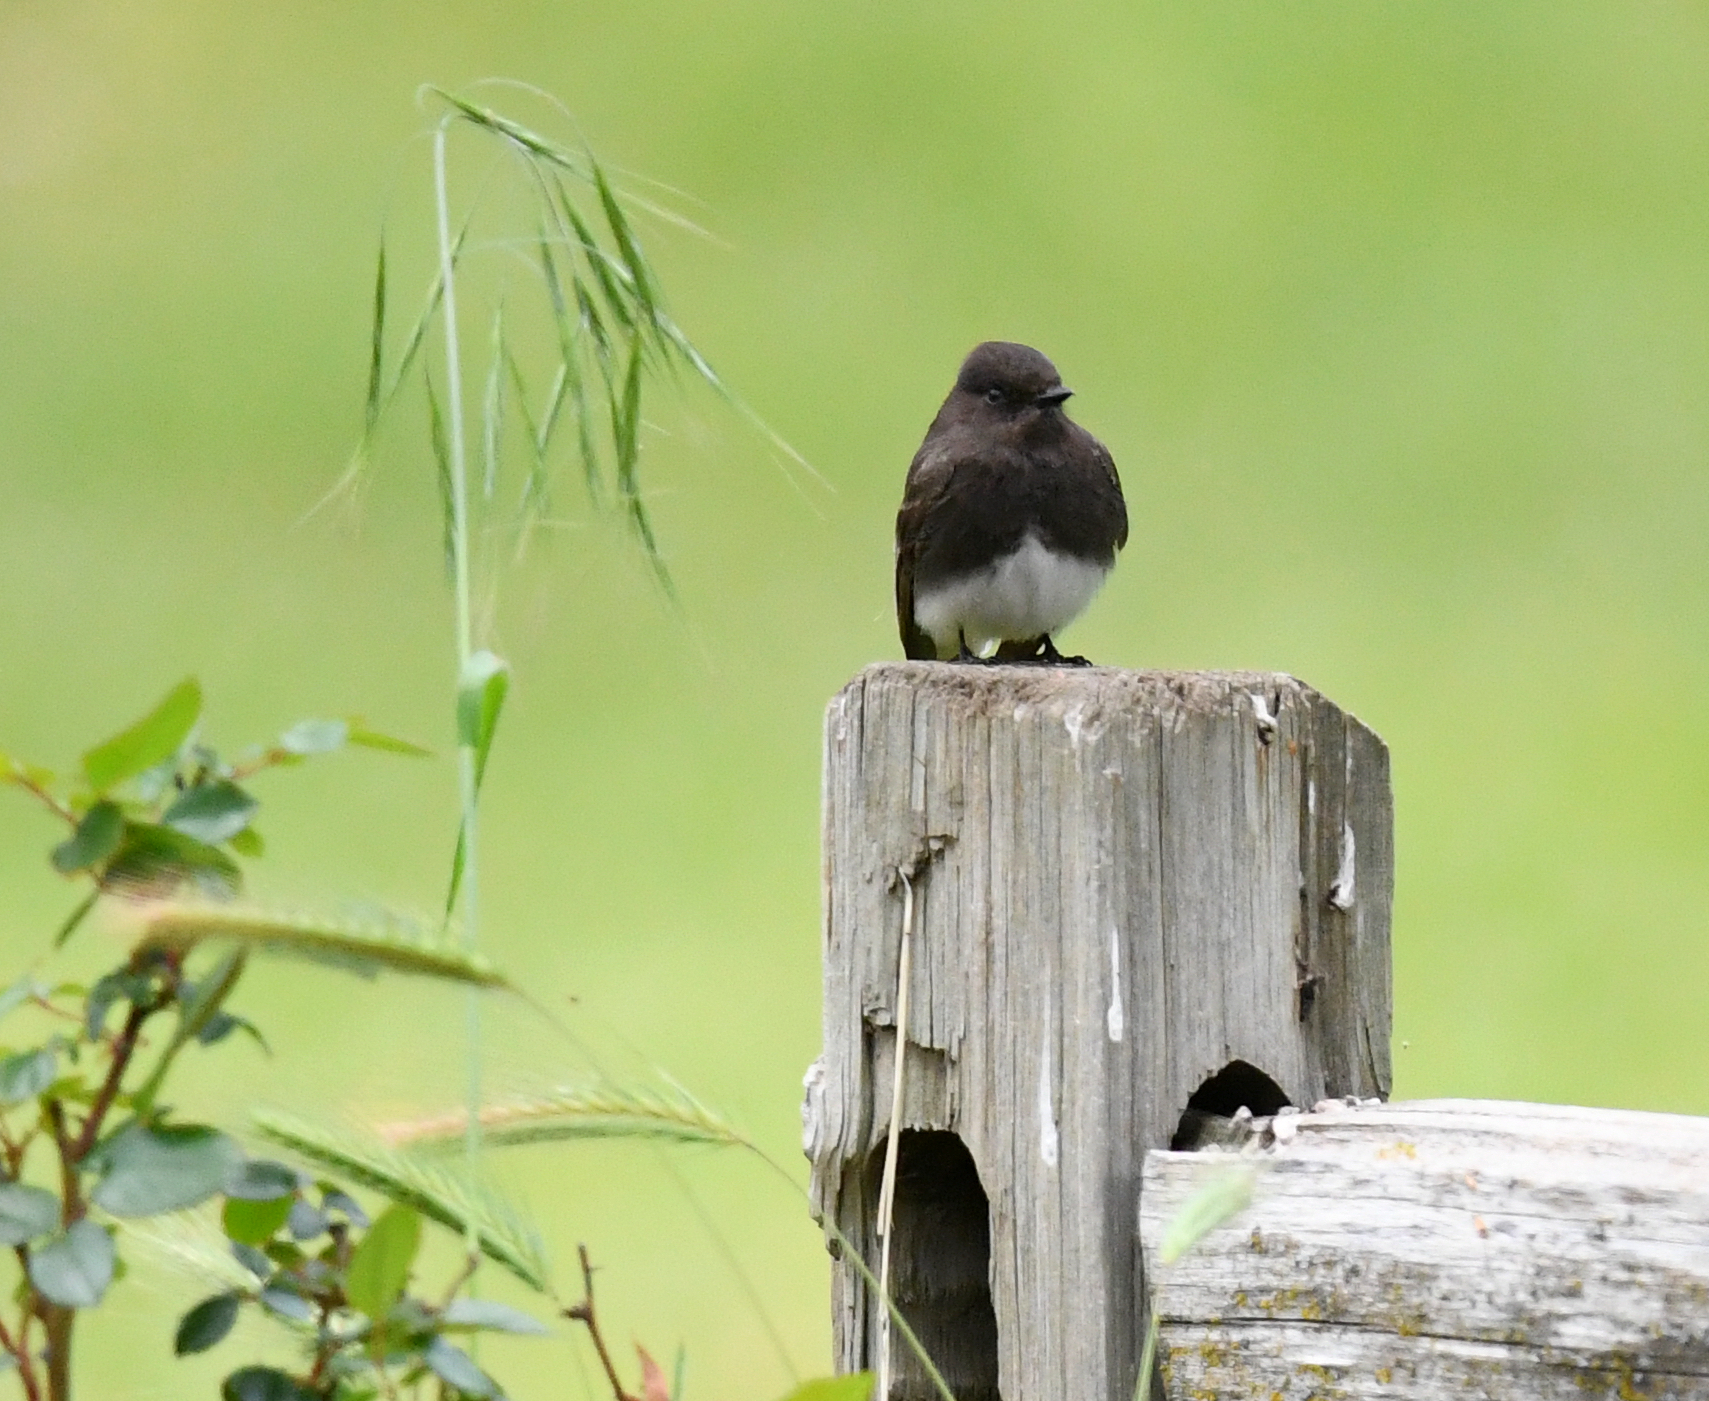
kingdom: Animalia
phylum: Chordata
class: Aves
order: Passeriformes
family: Tyrannidae
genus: Sayornis
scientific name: Sayornis nigricans
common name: Black phoebe
